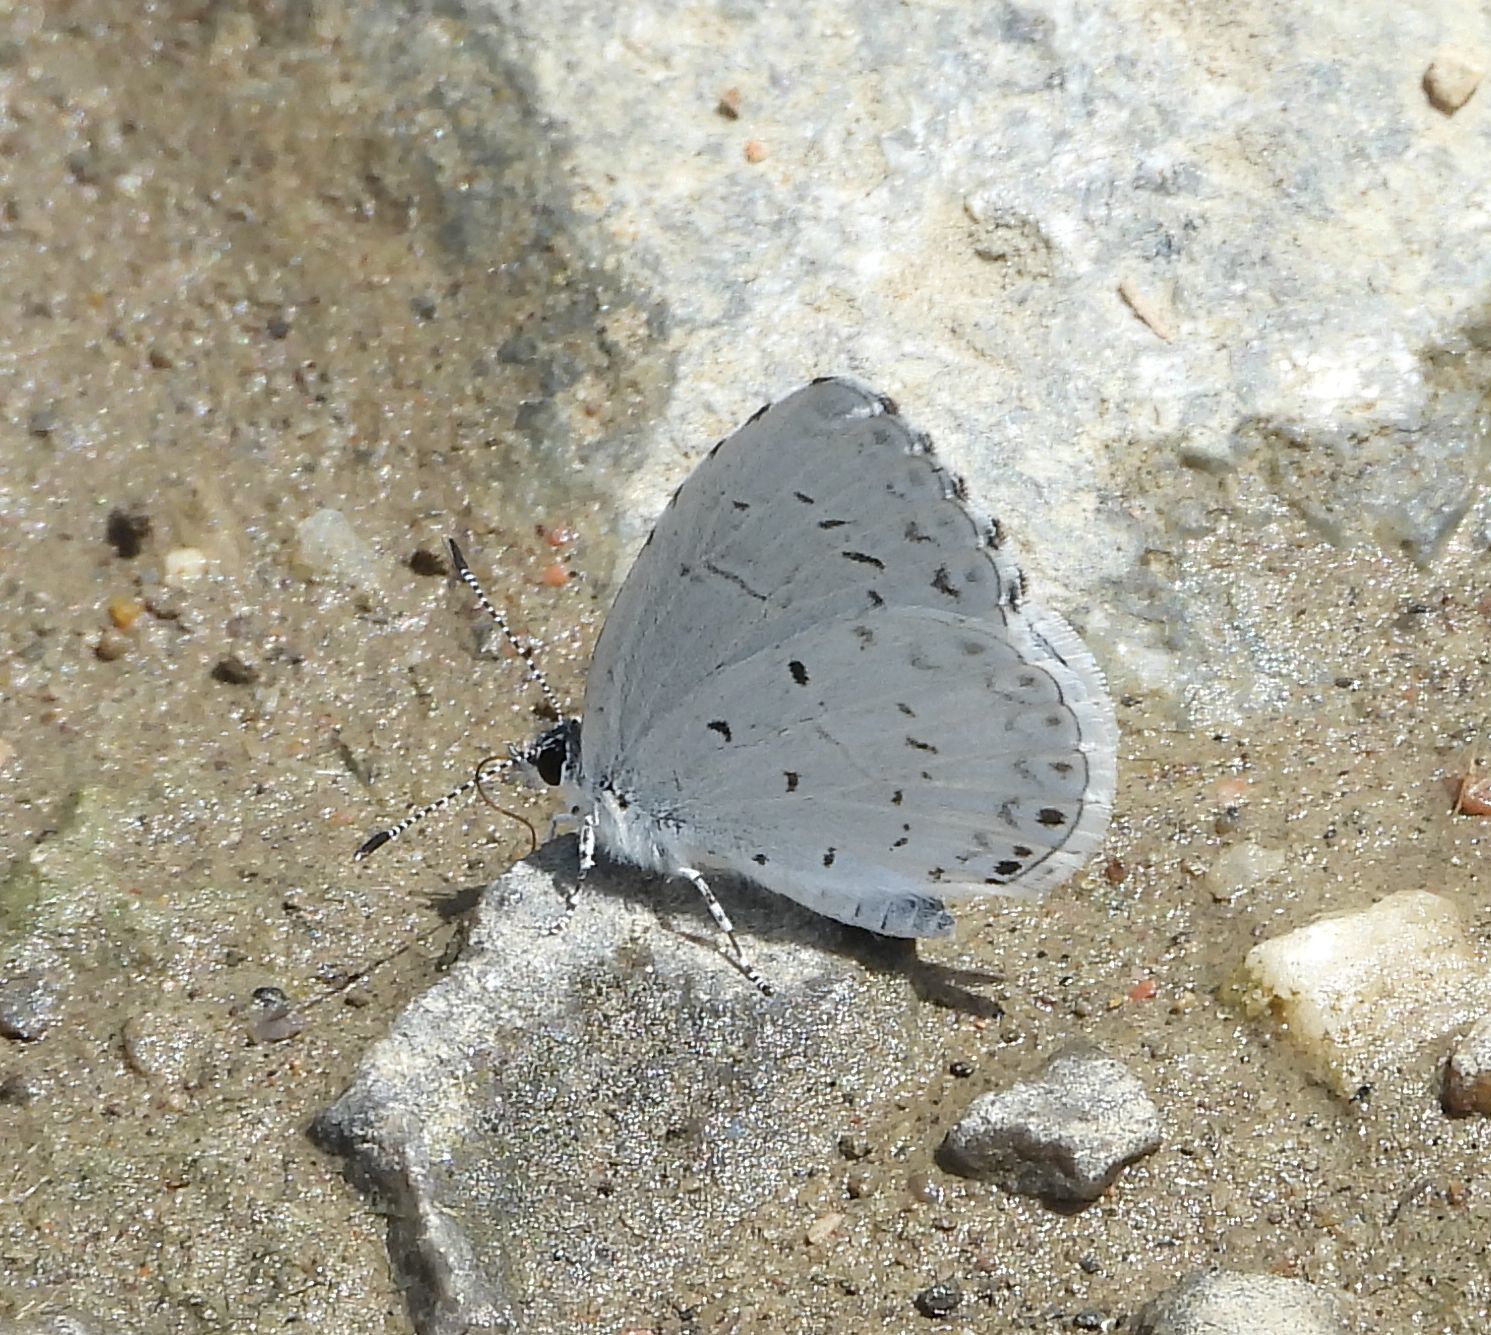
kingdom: Animalia
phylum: Arthropoda
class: Insecta
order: Lepidoptera
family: Lycaenidae
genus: Celastrina
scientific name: Celastrina
